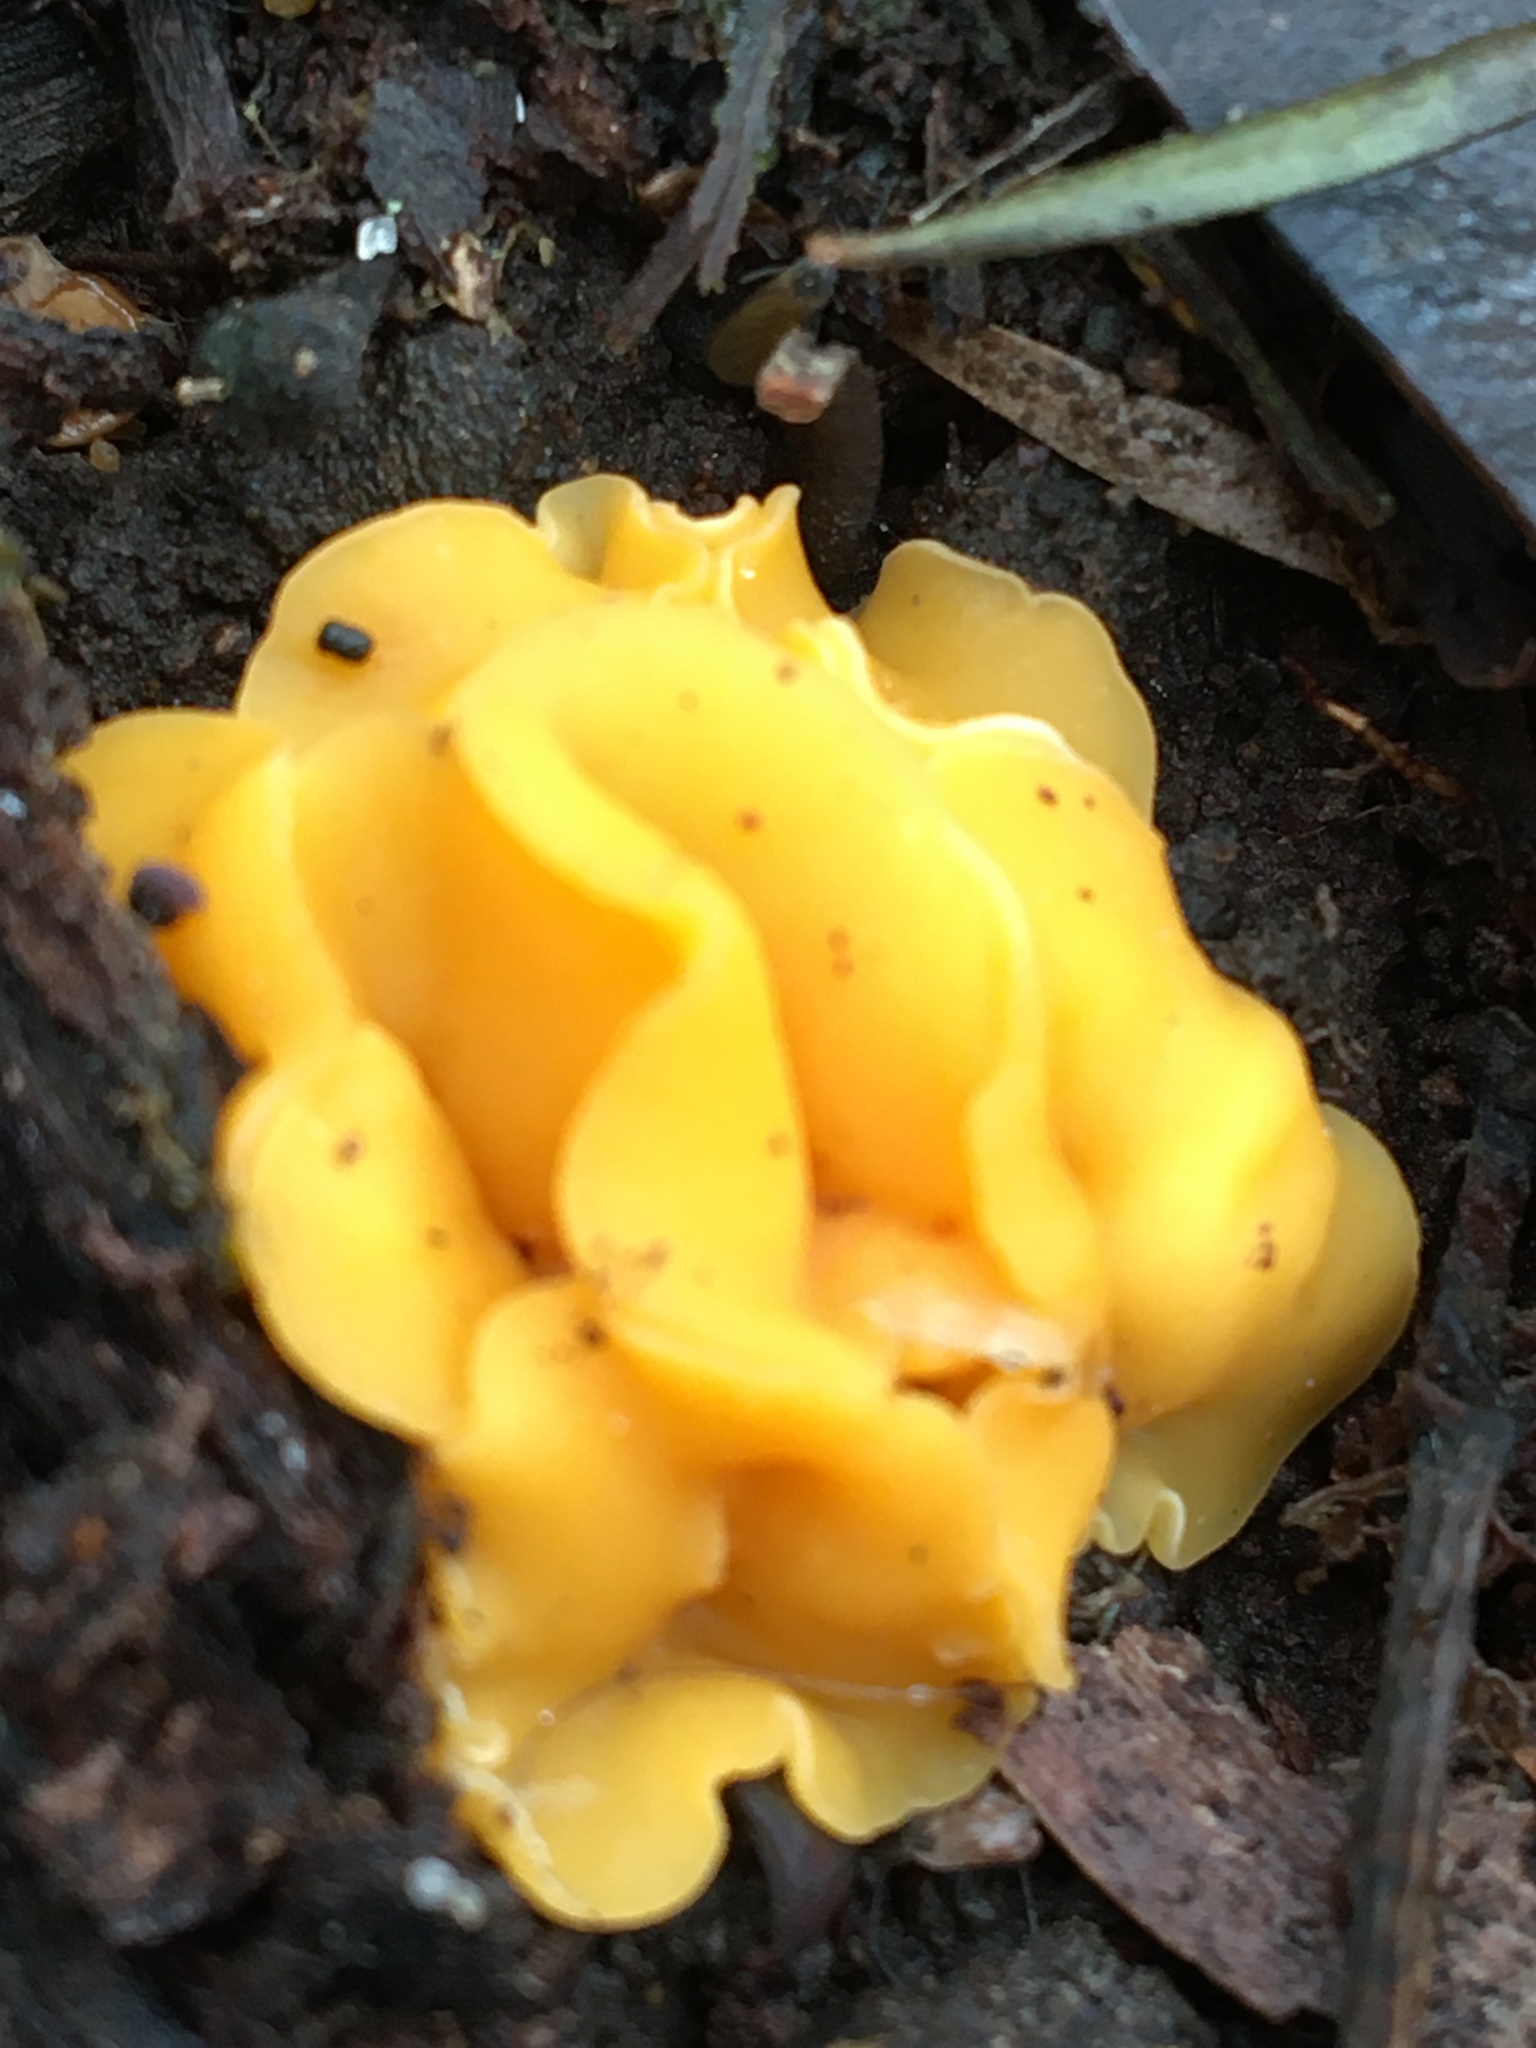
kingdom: Fungi
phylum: Ascomycota
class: Leotiomycetes
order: Helotiales
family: Helotiaceae
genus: Phaeohelotium
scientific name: Phaeohelotium baileyanum
